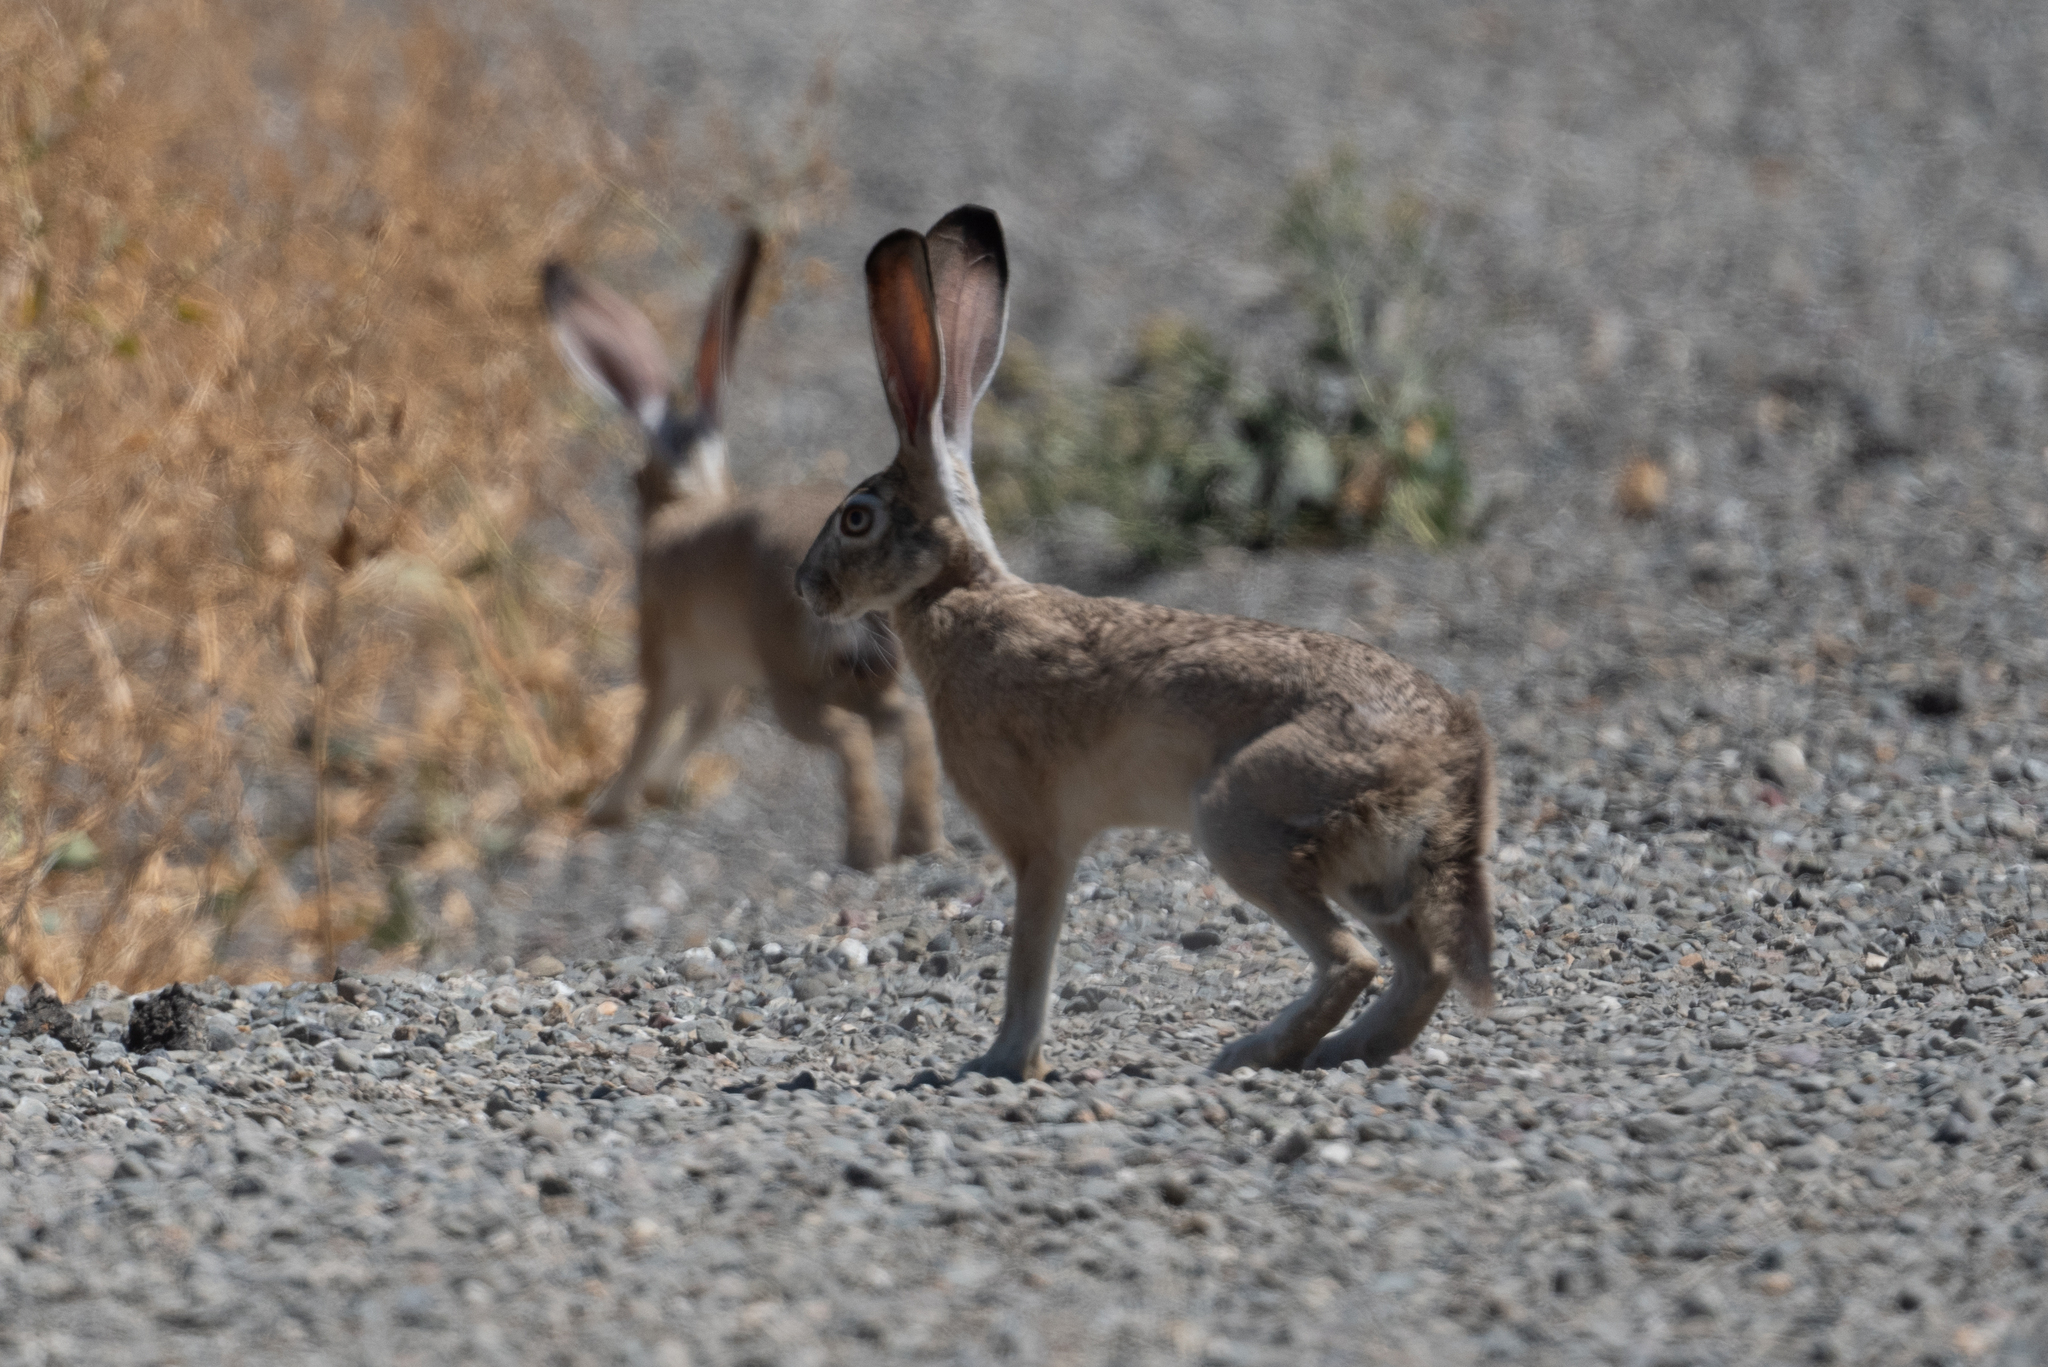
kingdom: Animalia
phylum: Chordata
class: Mammalia
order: Lagomorpha
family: Leporidae
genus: Lepus
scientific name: Lepus californicus
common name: Black-tailed jackrabbit
